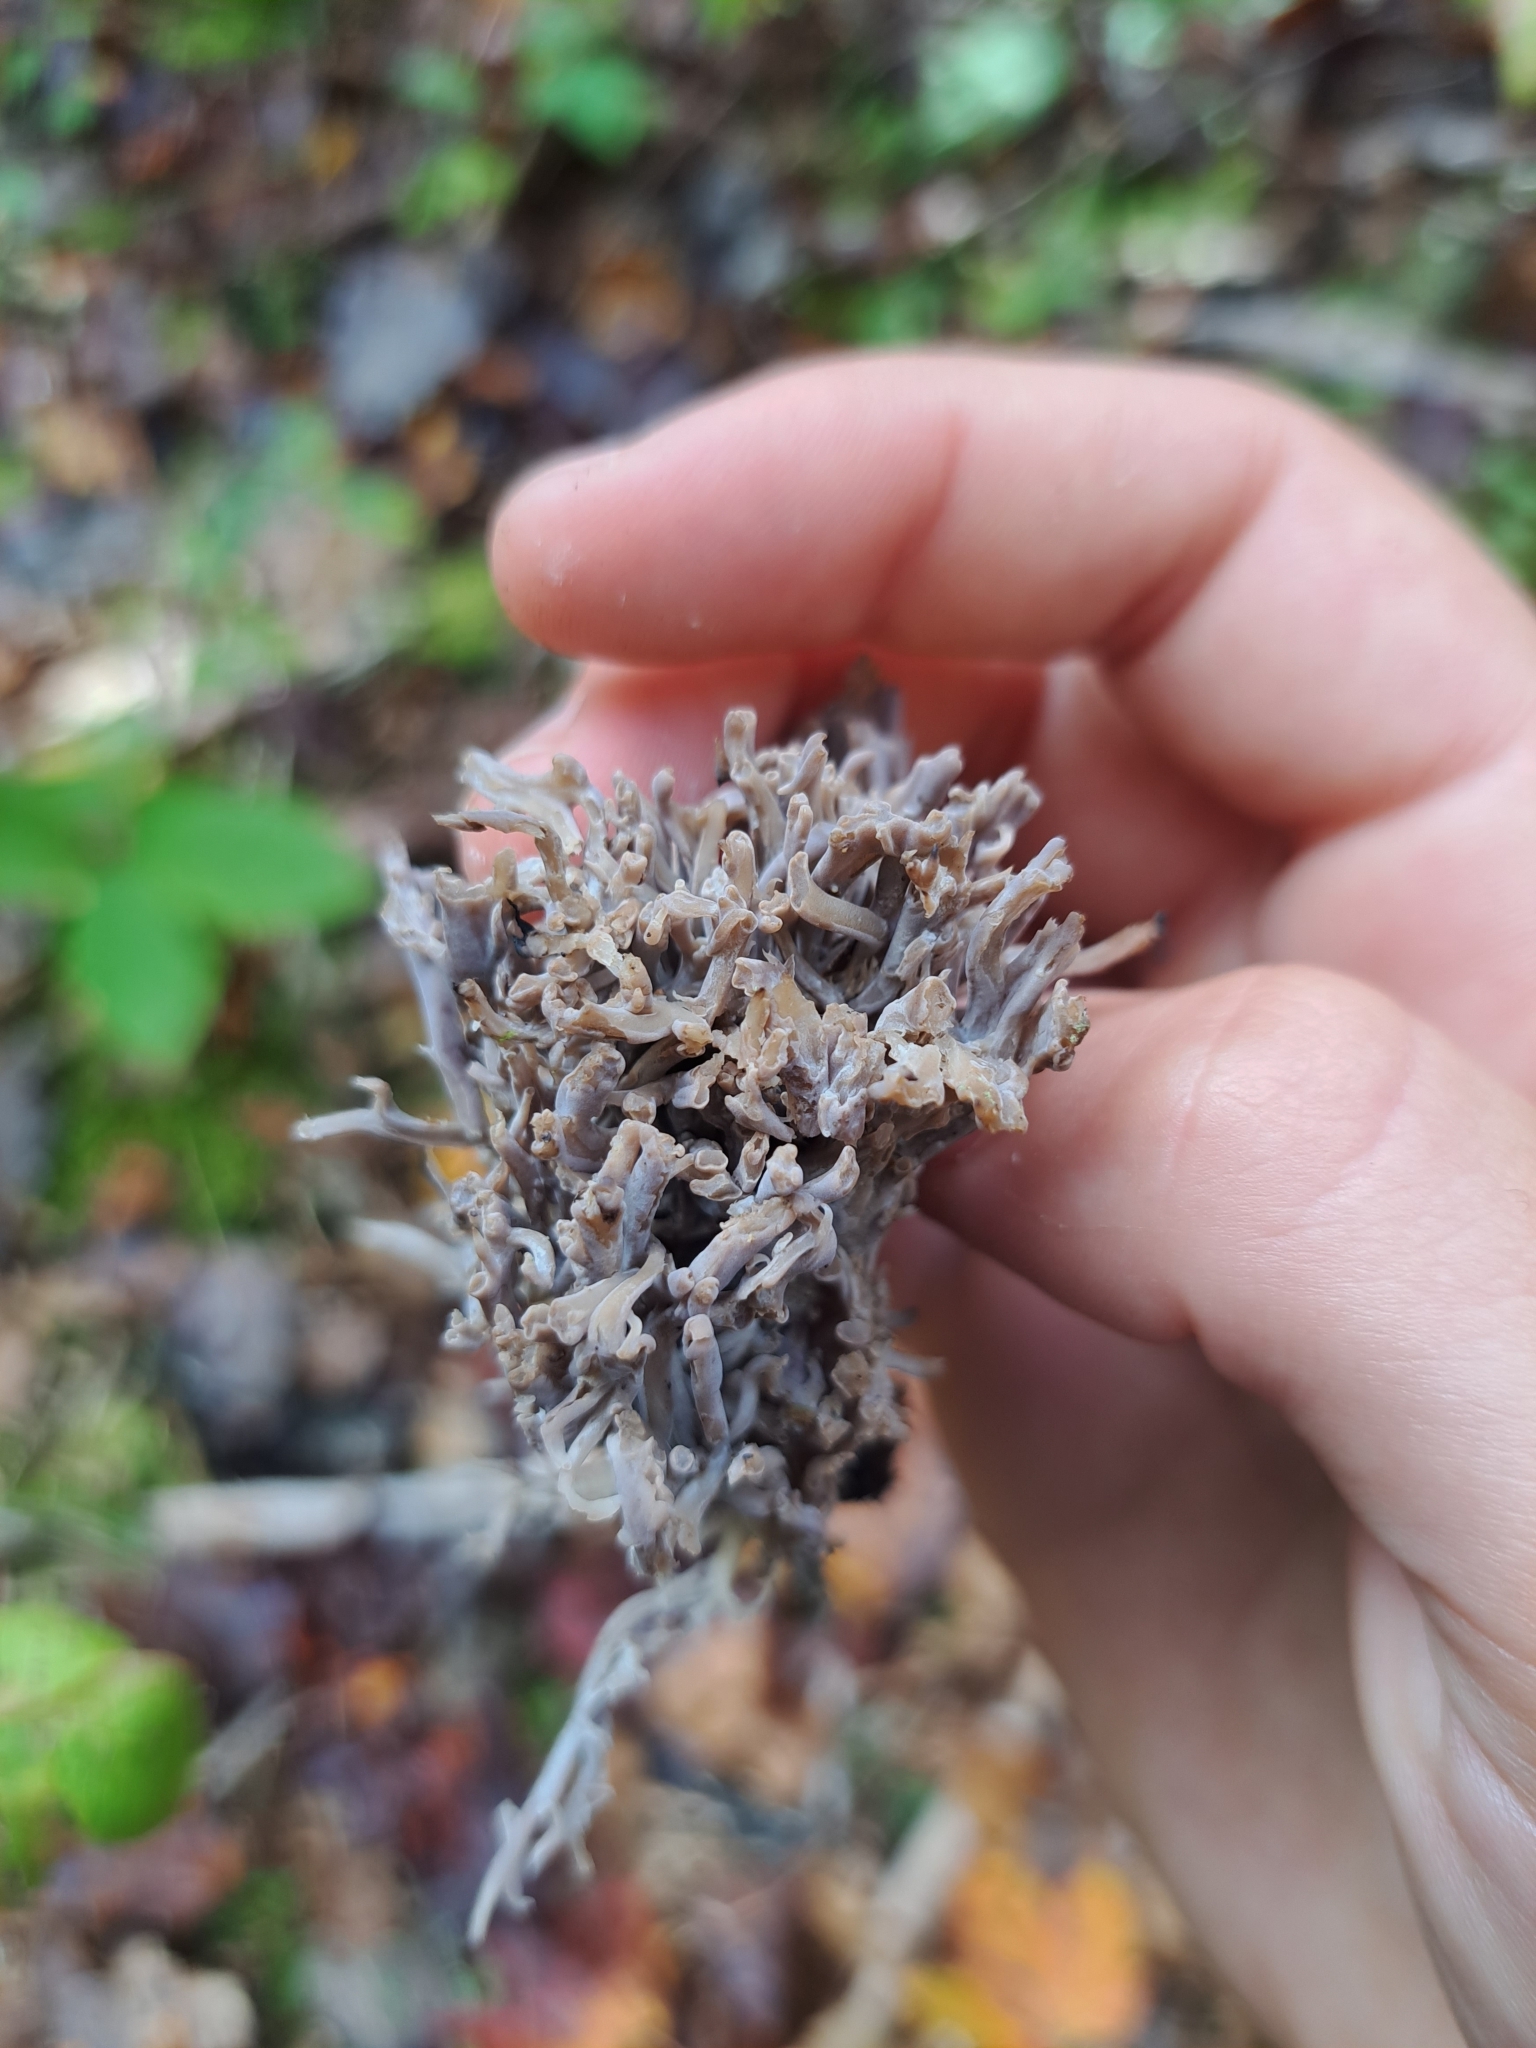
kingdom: Fungi
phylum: Basidiomycota
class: Agaricomycetes
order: Cantharellales
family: Hydnaceae
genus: Clavulina
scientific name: Clavulina cinerea
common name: Grey coral
